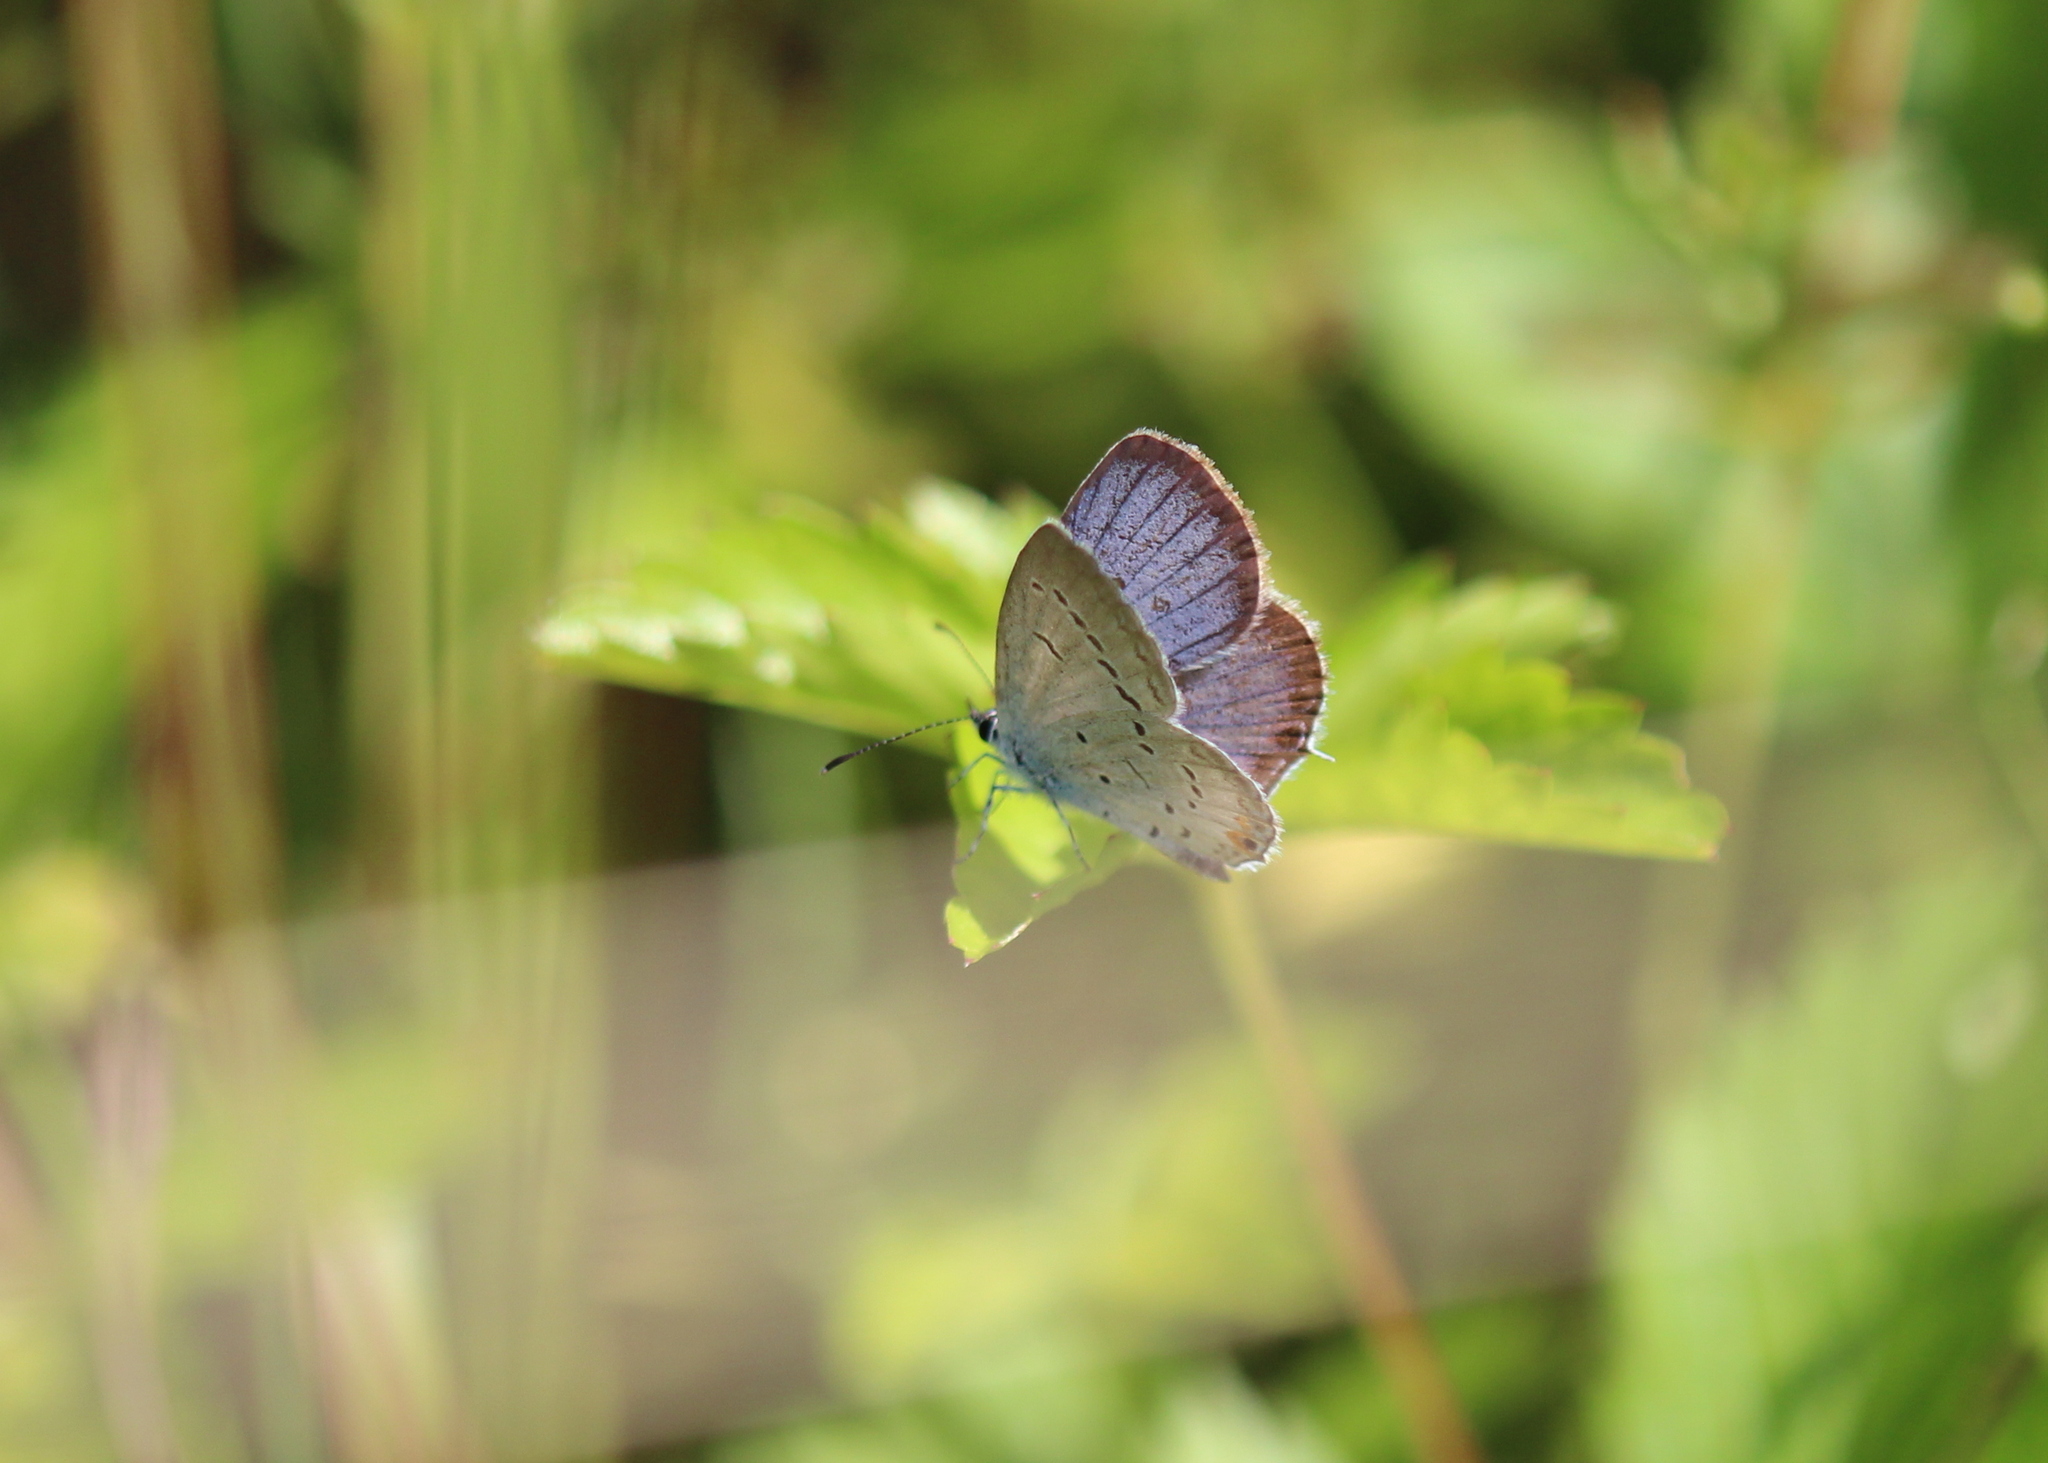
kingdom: Animalia
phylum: Arthropoda
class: Insecta
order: Lepidoptera
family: Lycaenidae
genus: Elkalyce
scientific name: Elkalyce comyntas
